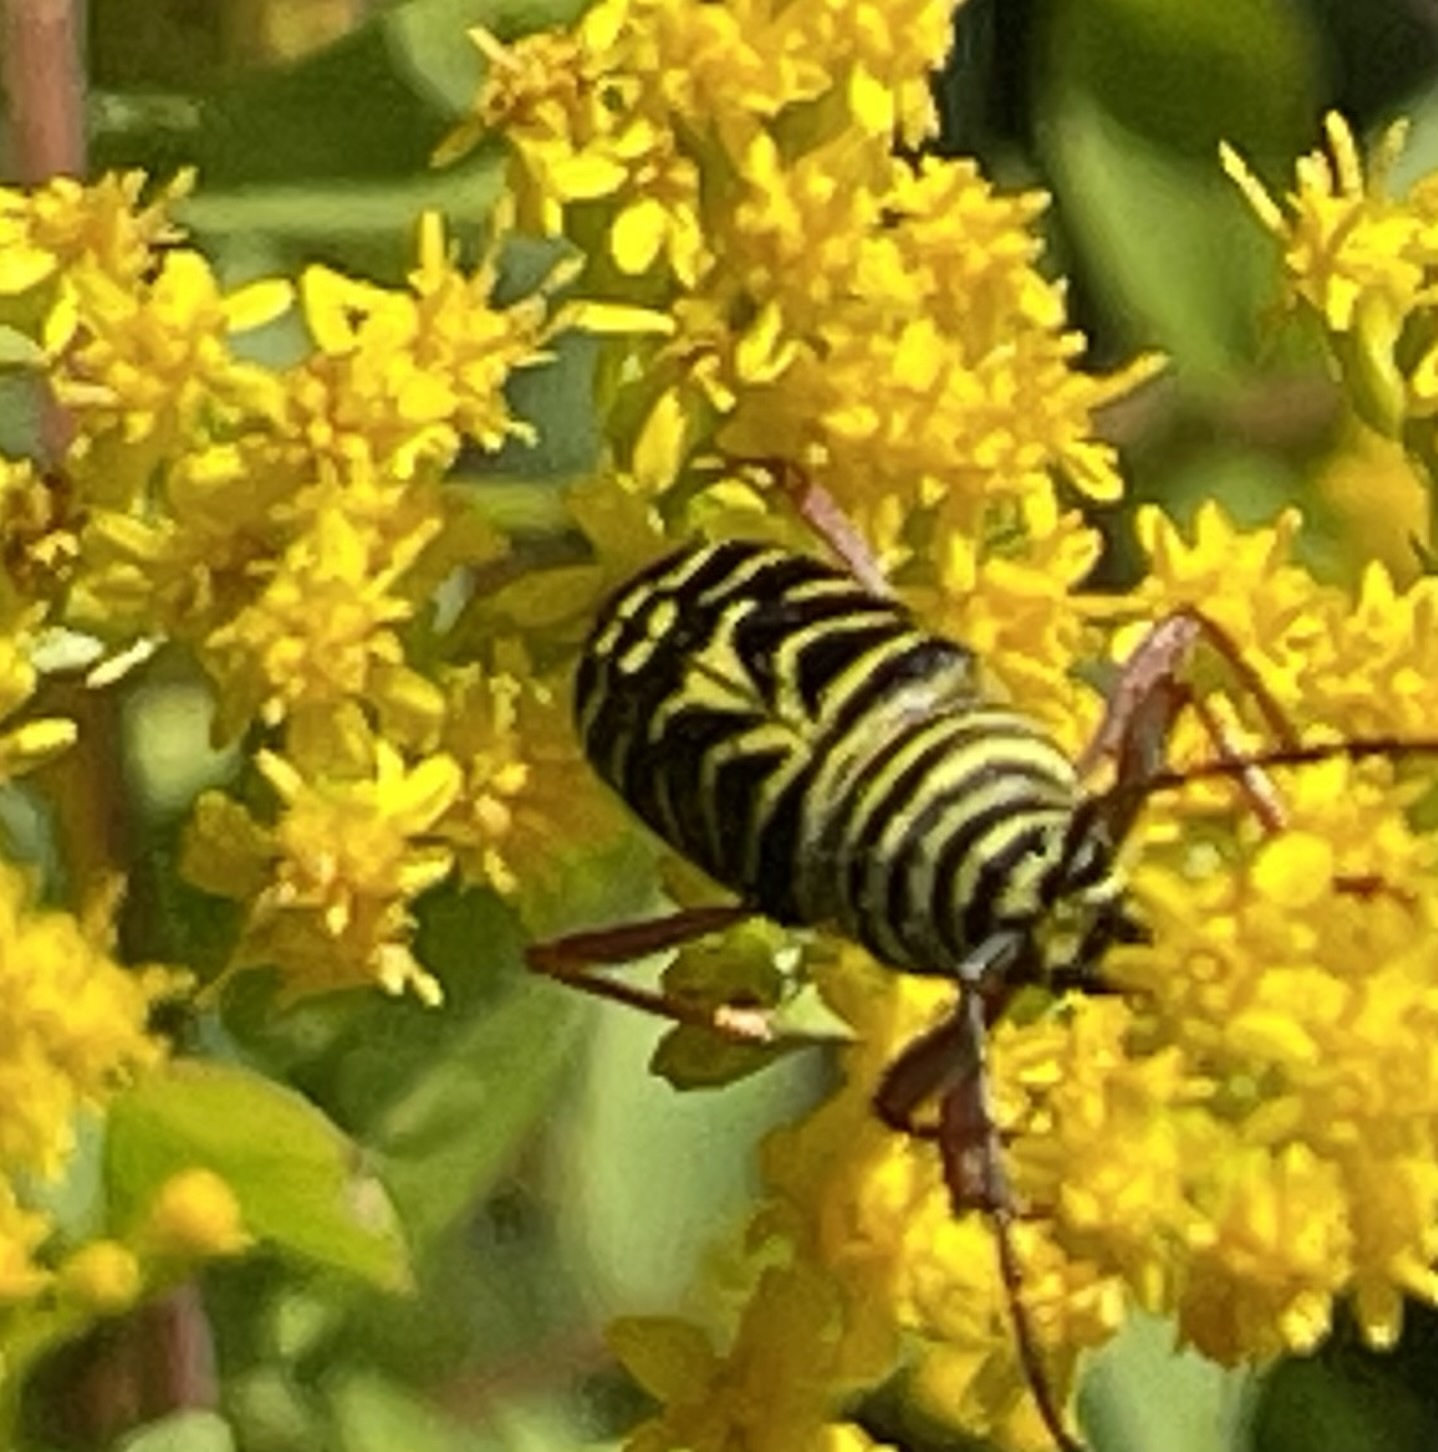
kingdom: Animalia
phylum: Arthropoda
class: Insecta
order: Coleoptera
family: Cerambycidae
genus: Megacyllene
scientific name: Megacyllene robiniae
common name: Locust borer
